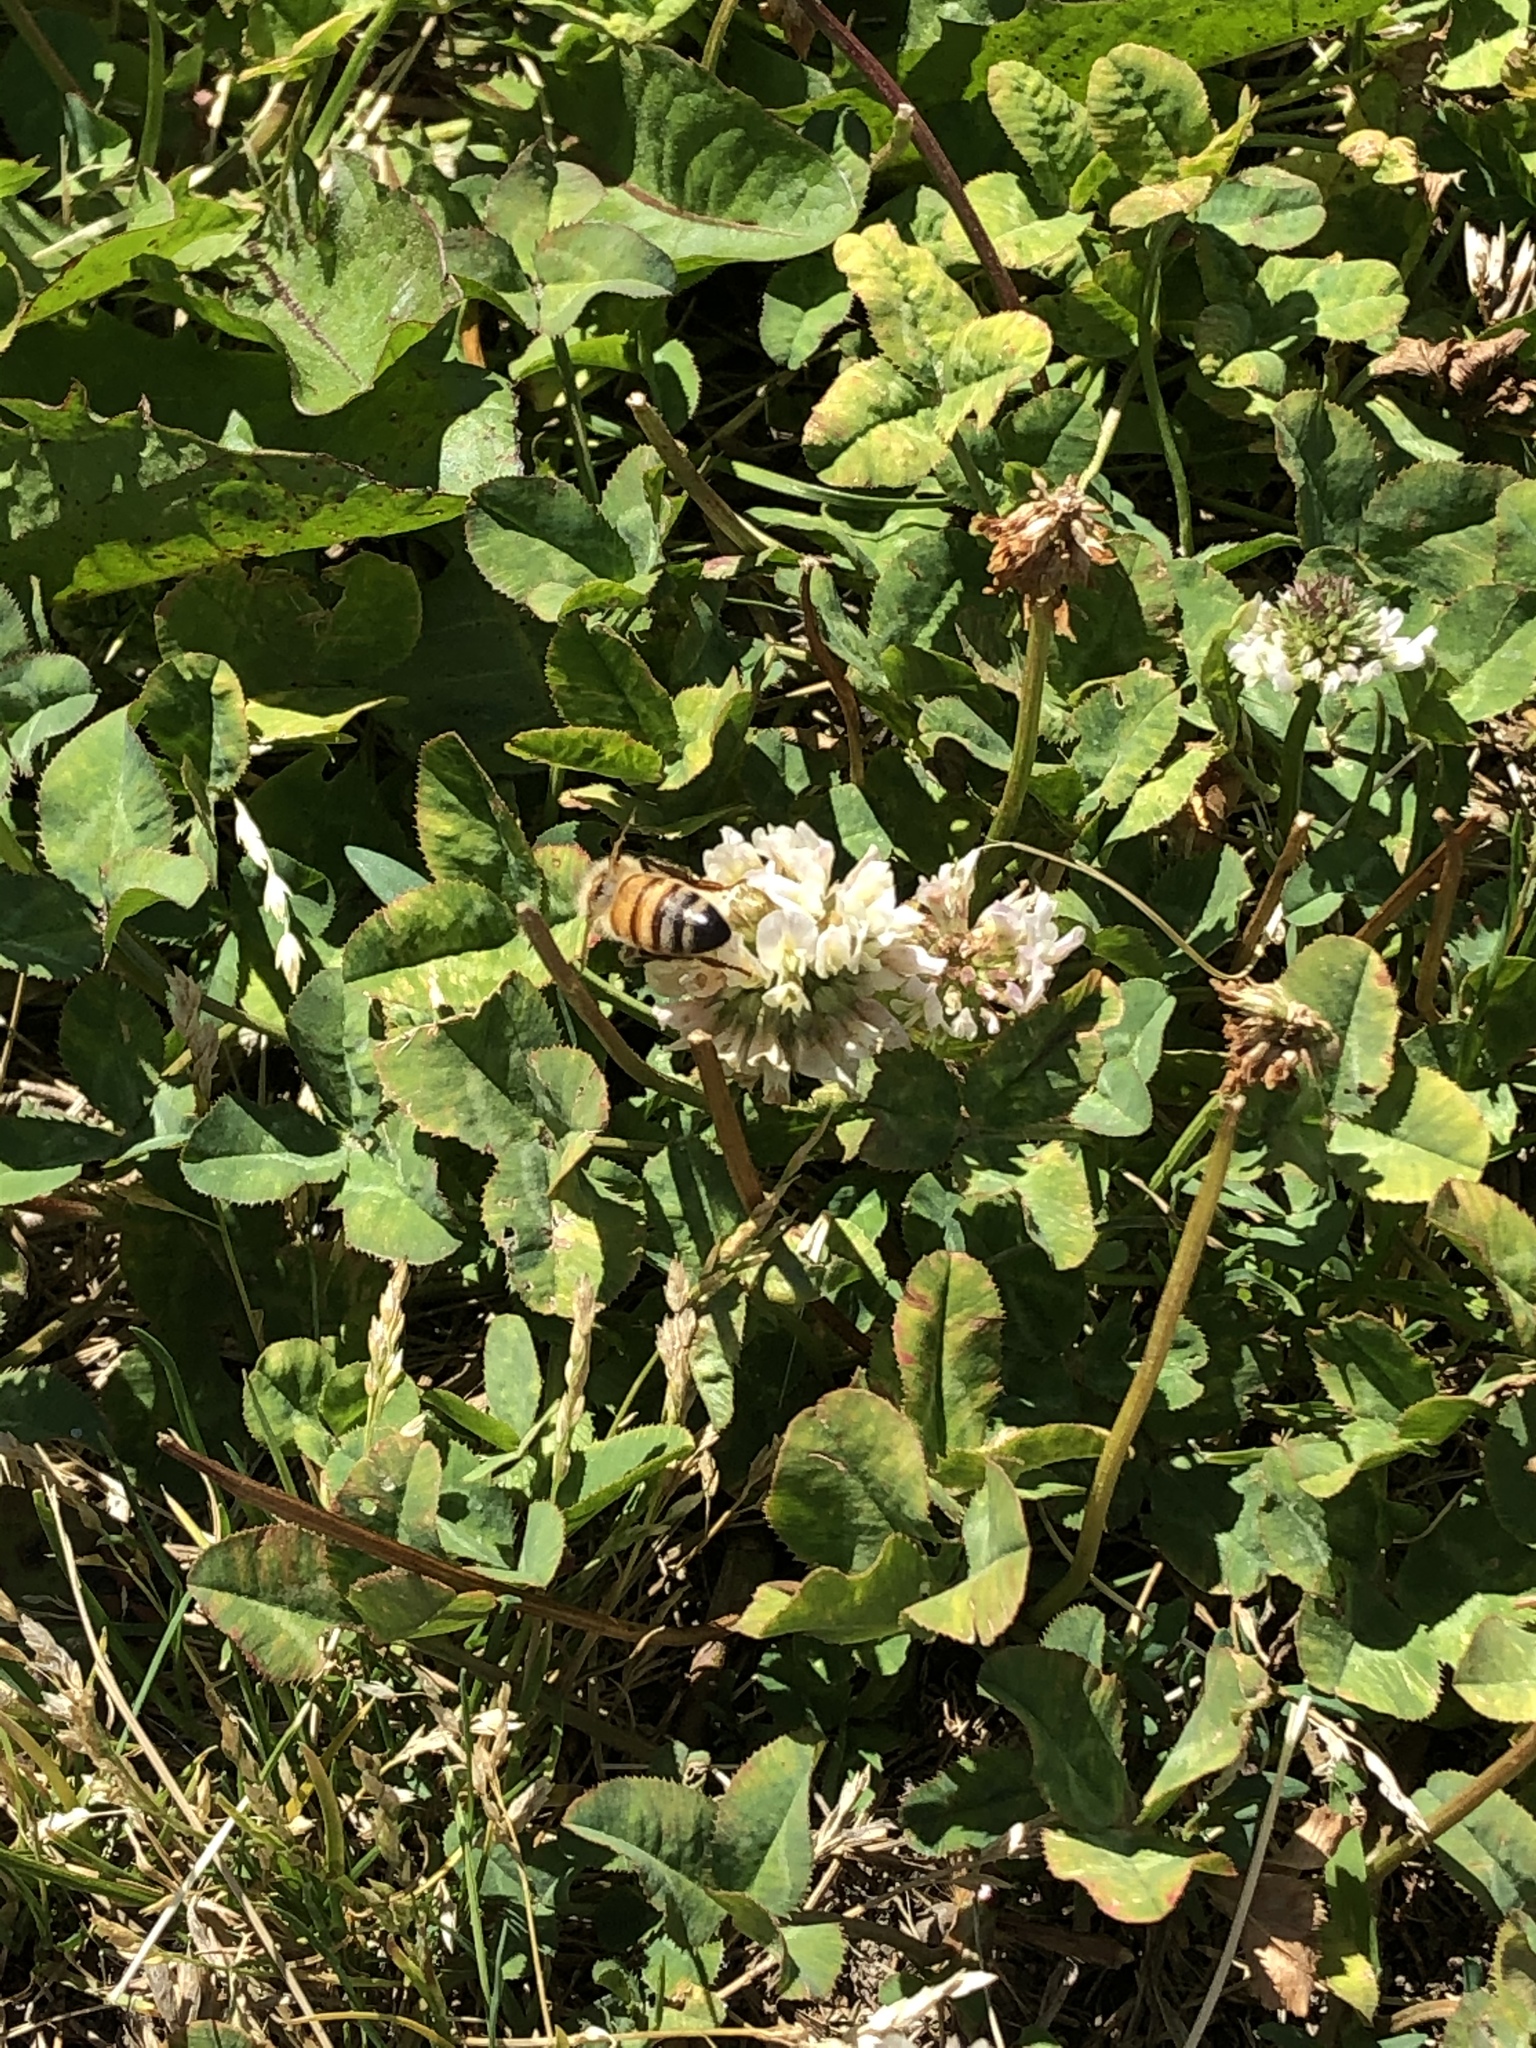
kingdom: Animalia
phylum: Arthropoda
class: Insecta
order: Hymenoptera
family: Apidae
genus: Apis
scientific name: Apis mellifera
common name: Honey bee
